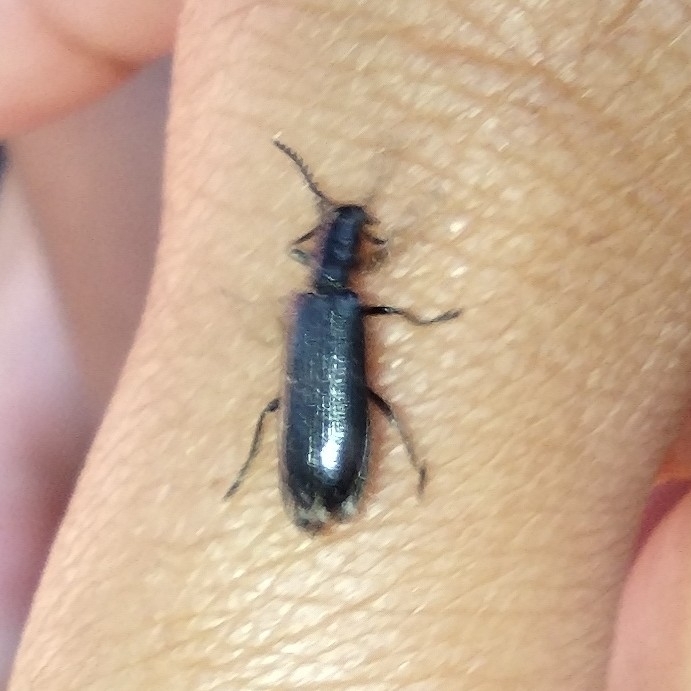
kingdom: Animalia
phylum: Arthropoda
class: Insecta
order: Coleoptera
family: Cleridae
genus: Tillus
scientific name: Tillus elongatus
